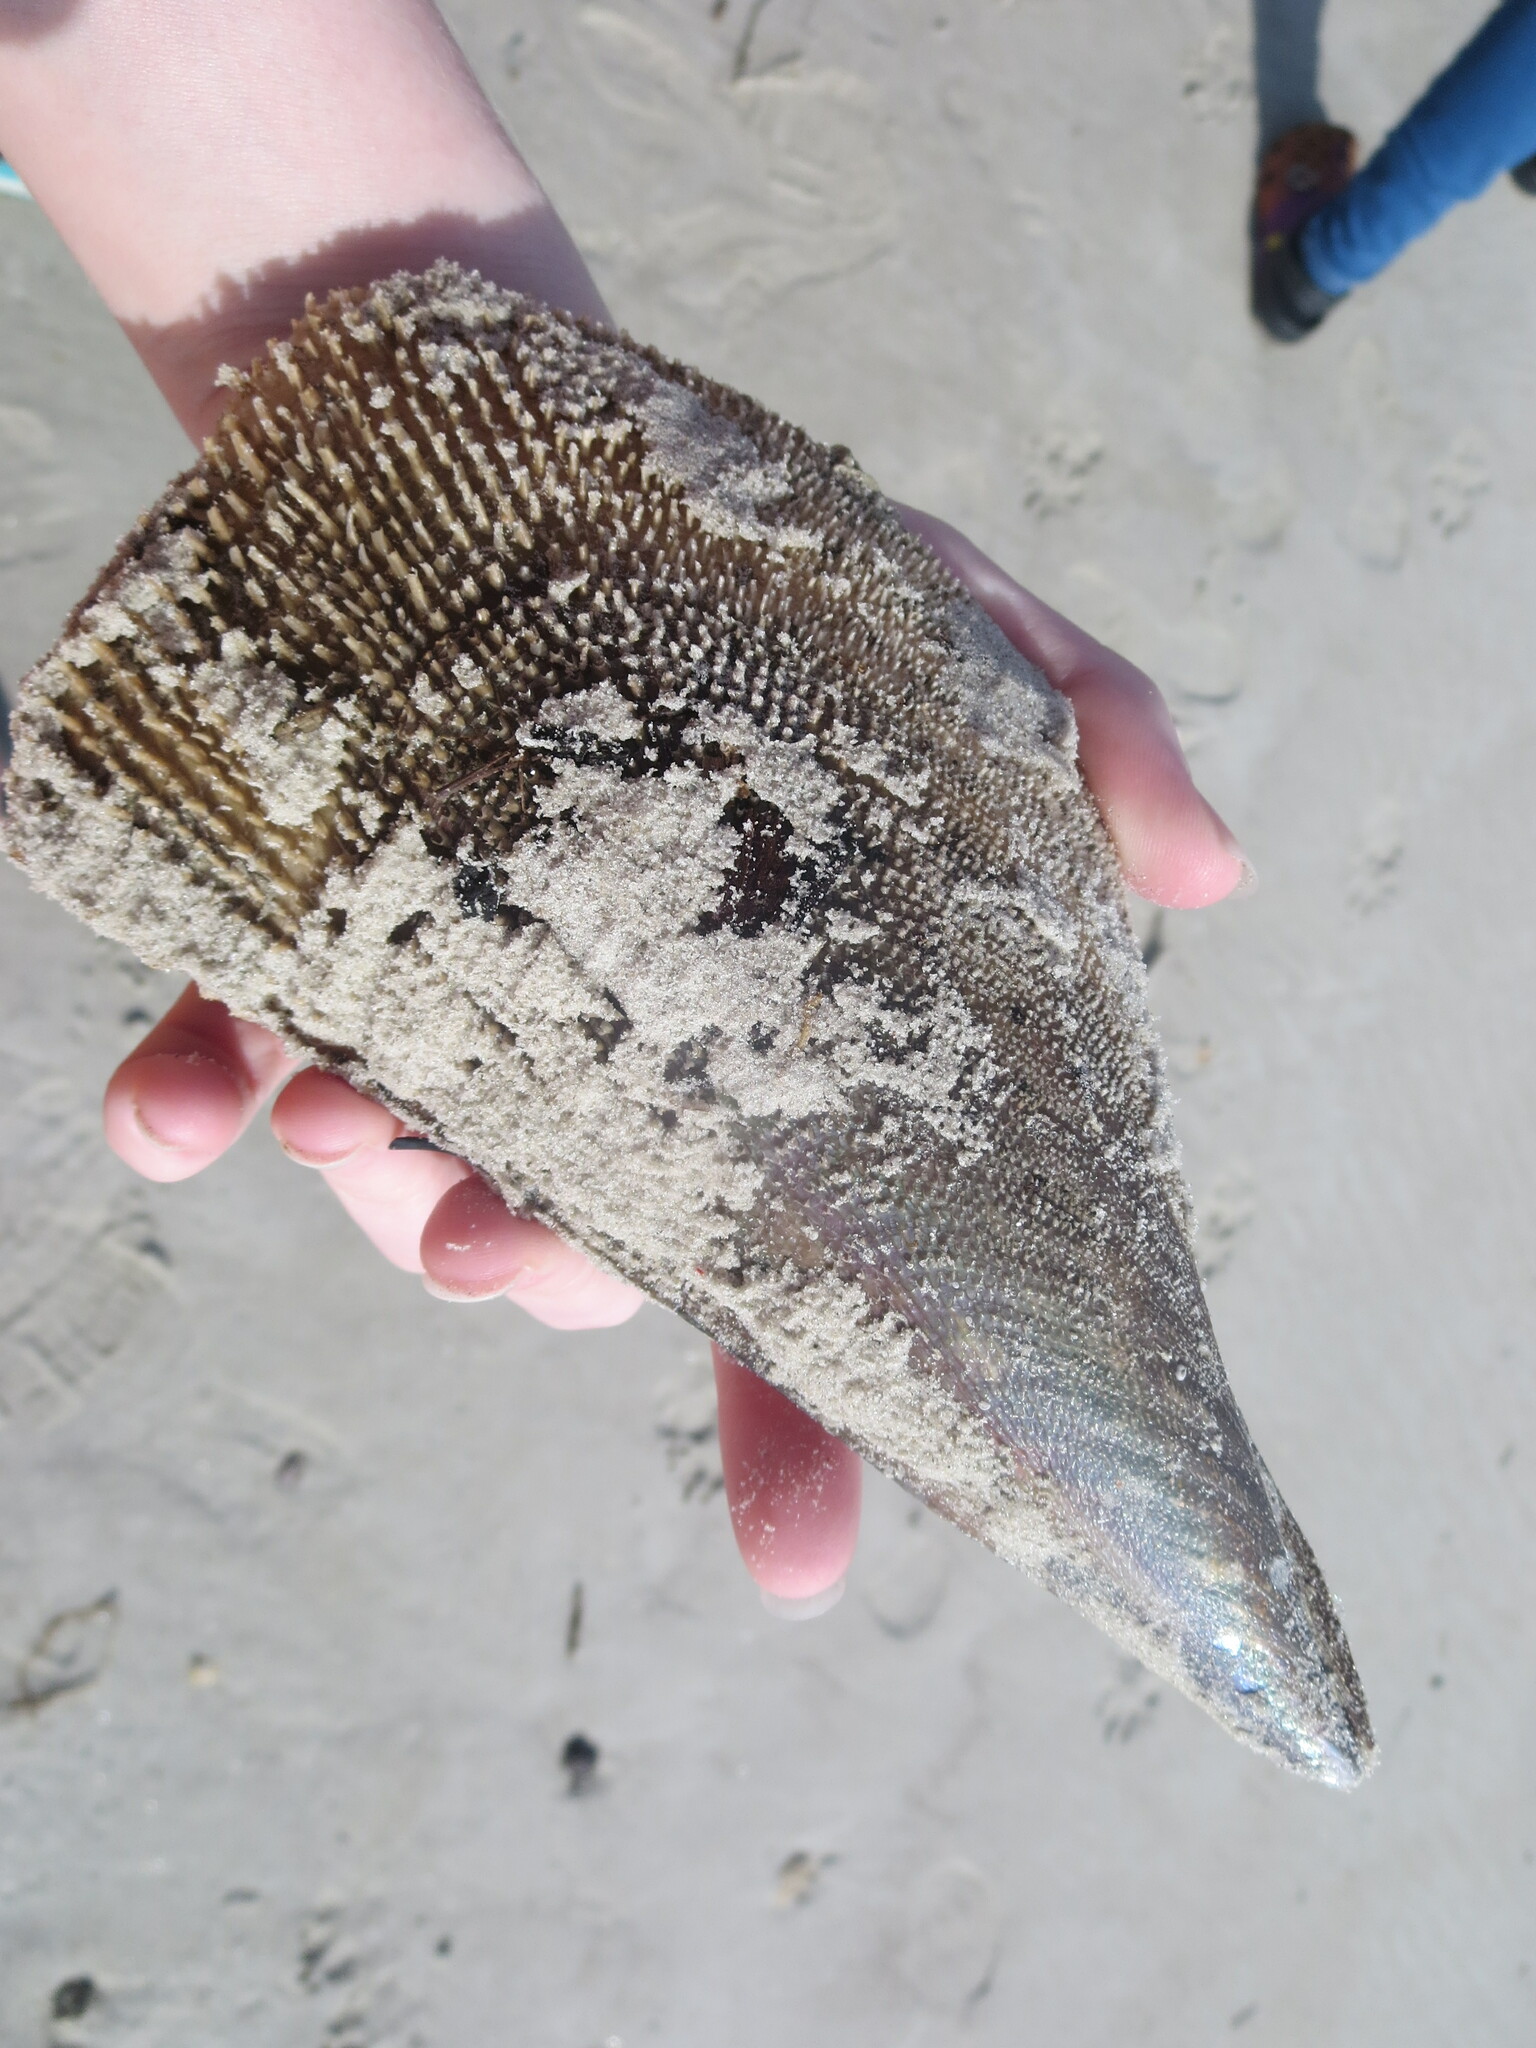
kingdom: Animalia
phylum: Mollusca
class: Bivalvia
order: Ostreida
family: Pinnidae
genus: Atrina
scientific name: Atrina serrata
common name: Saw-toothed penshell
